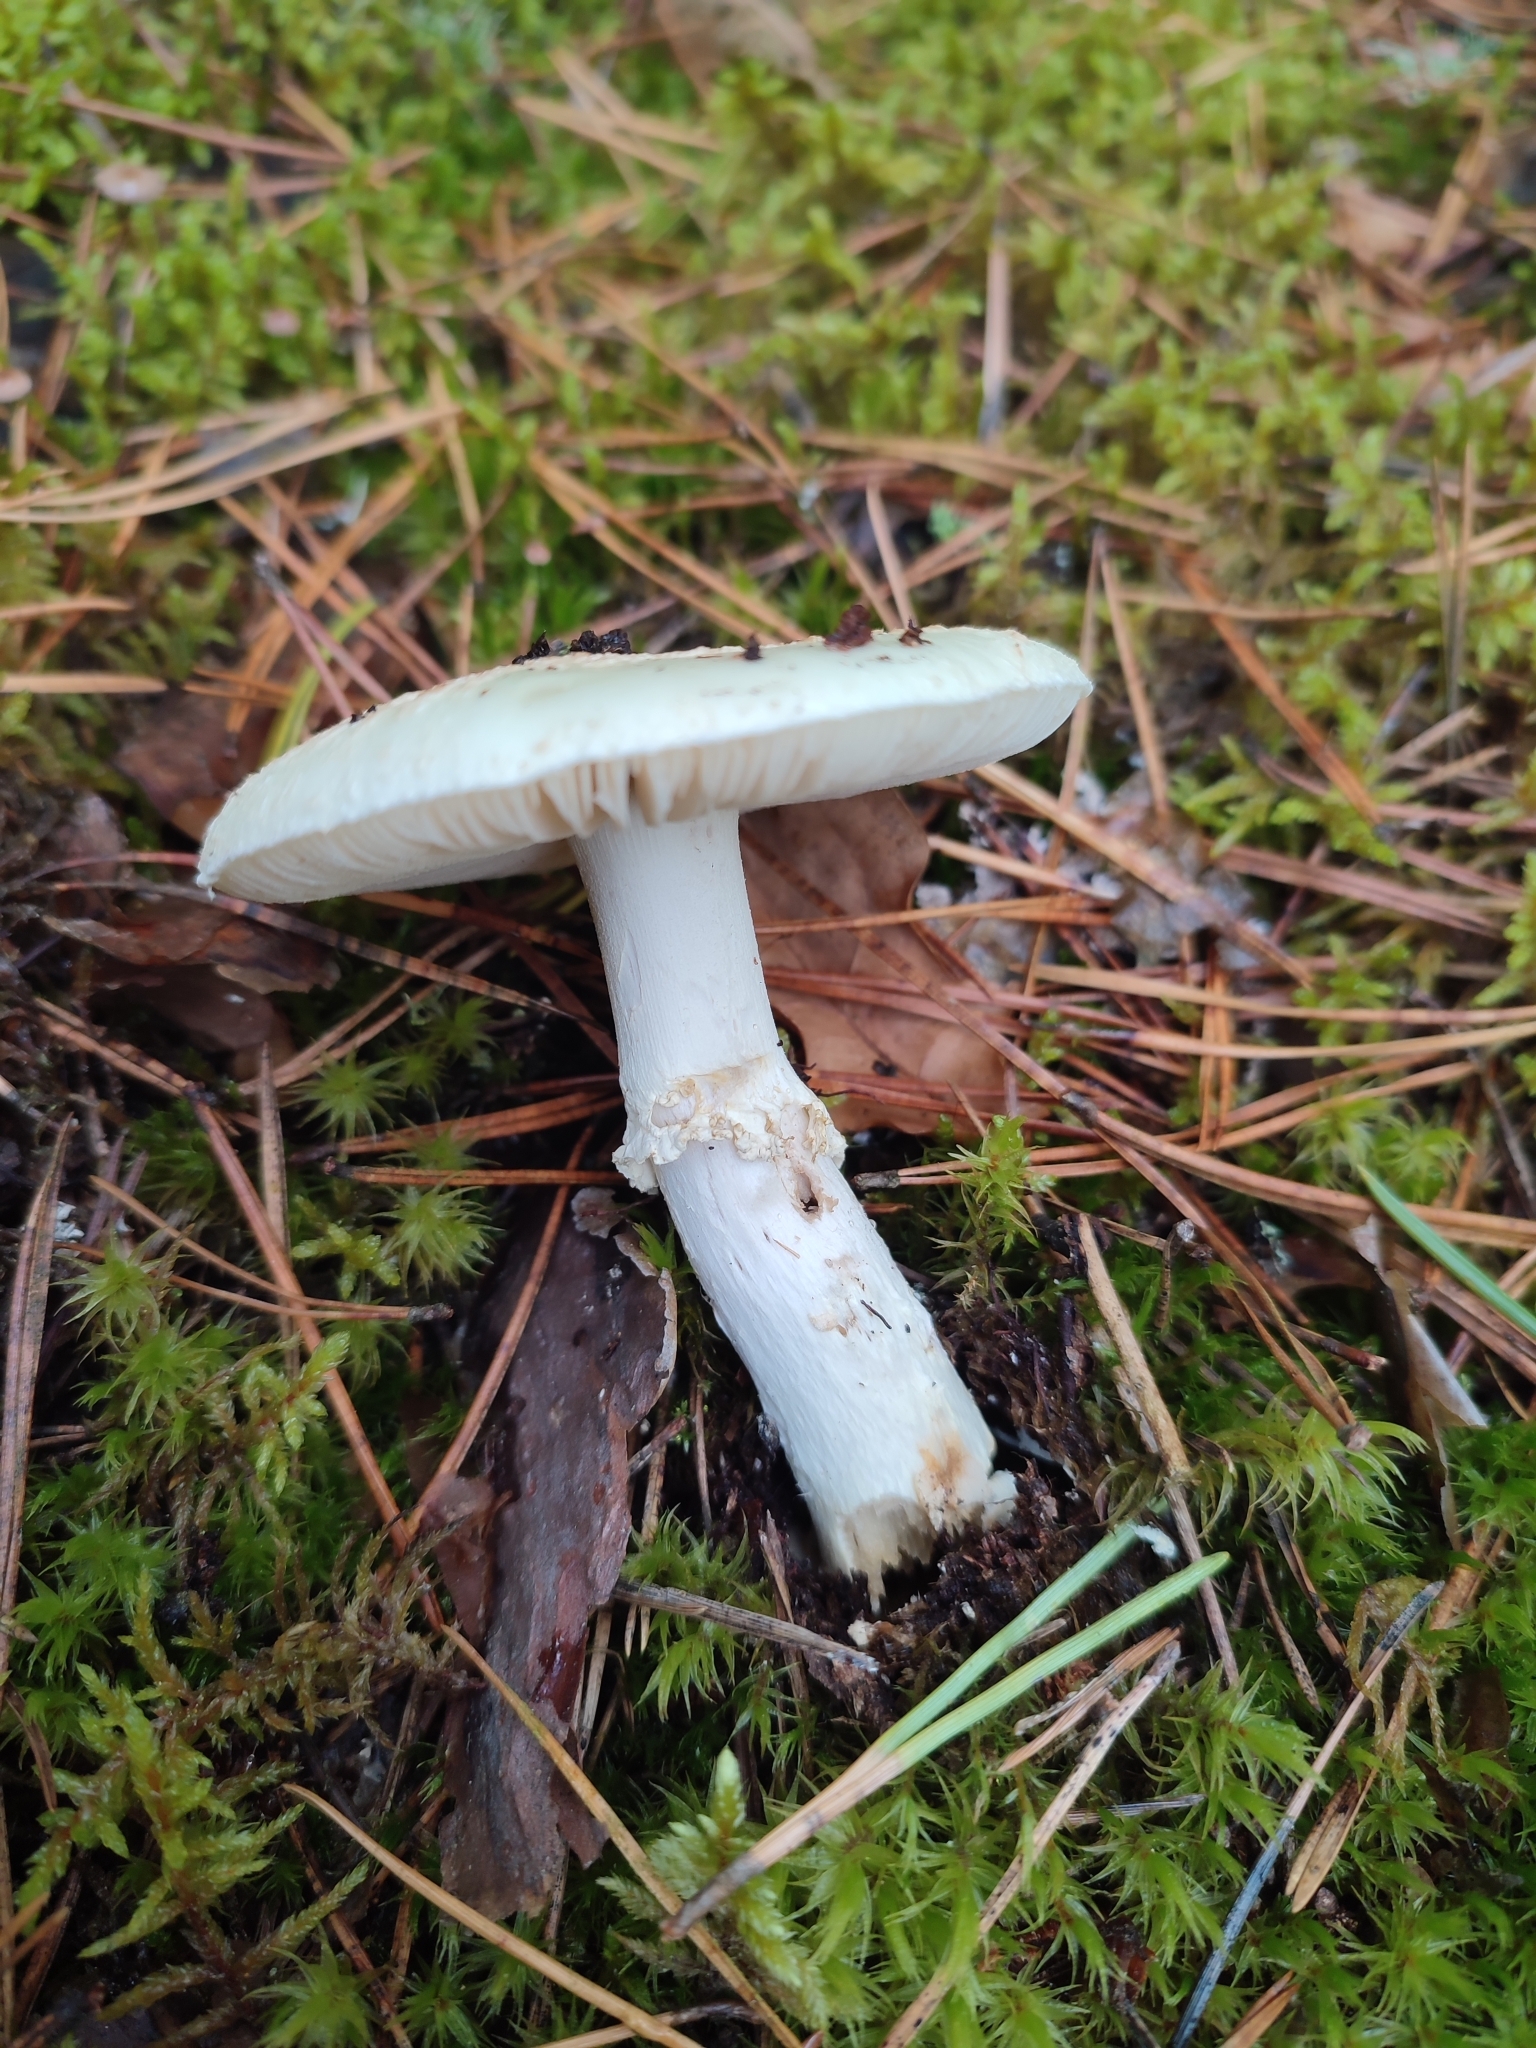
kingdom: Fungi
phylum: Basidiomycota
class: Agaricomycetes
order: Agaricales
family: Amanitaceae
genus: Amanita
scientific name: Amanita citrina
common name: False death-cap
